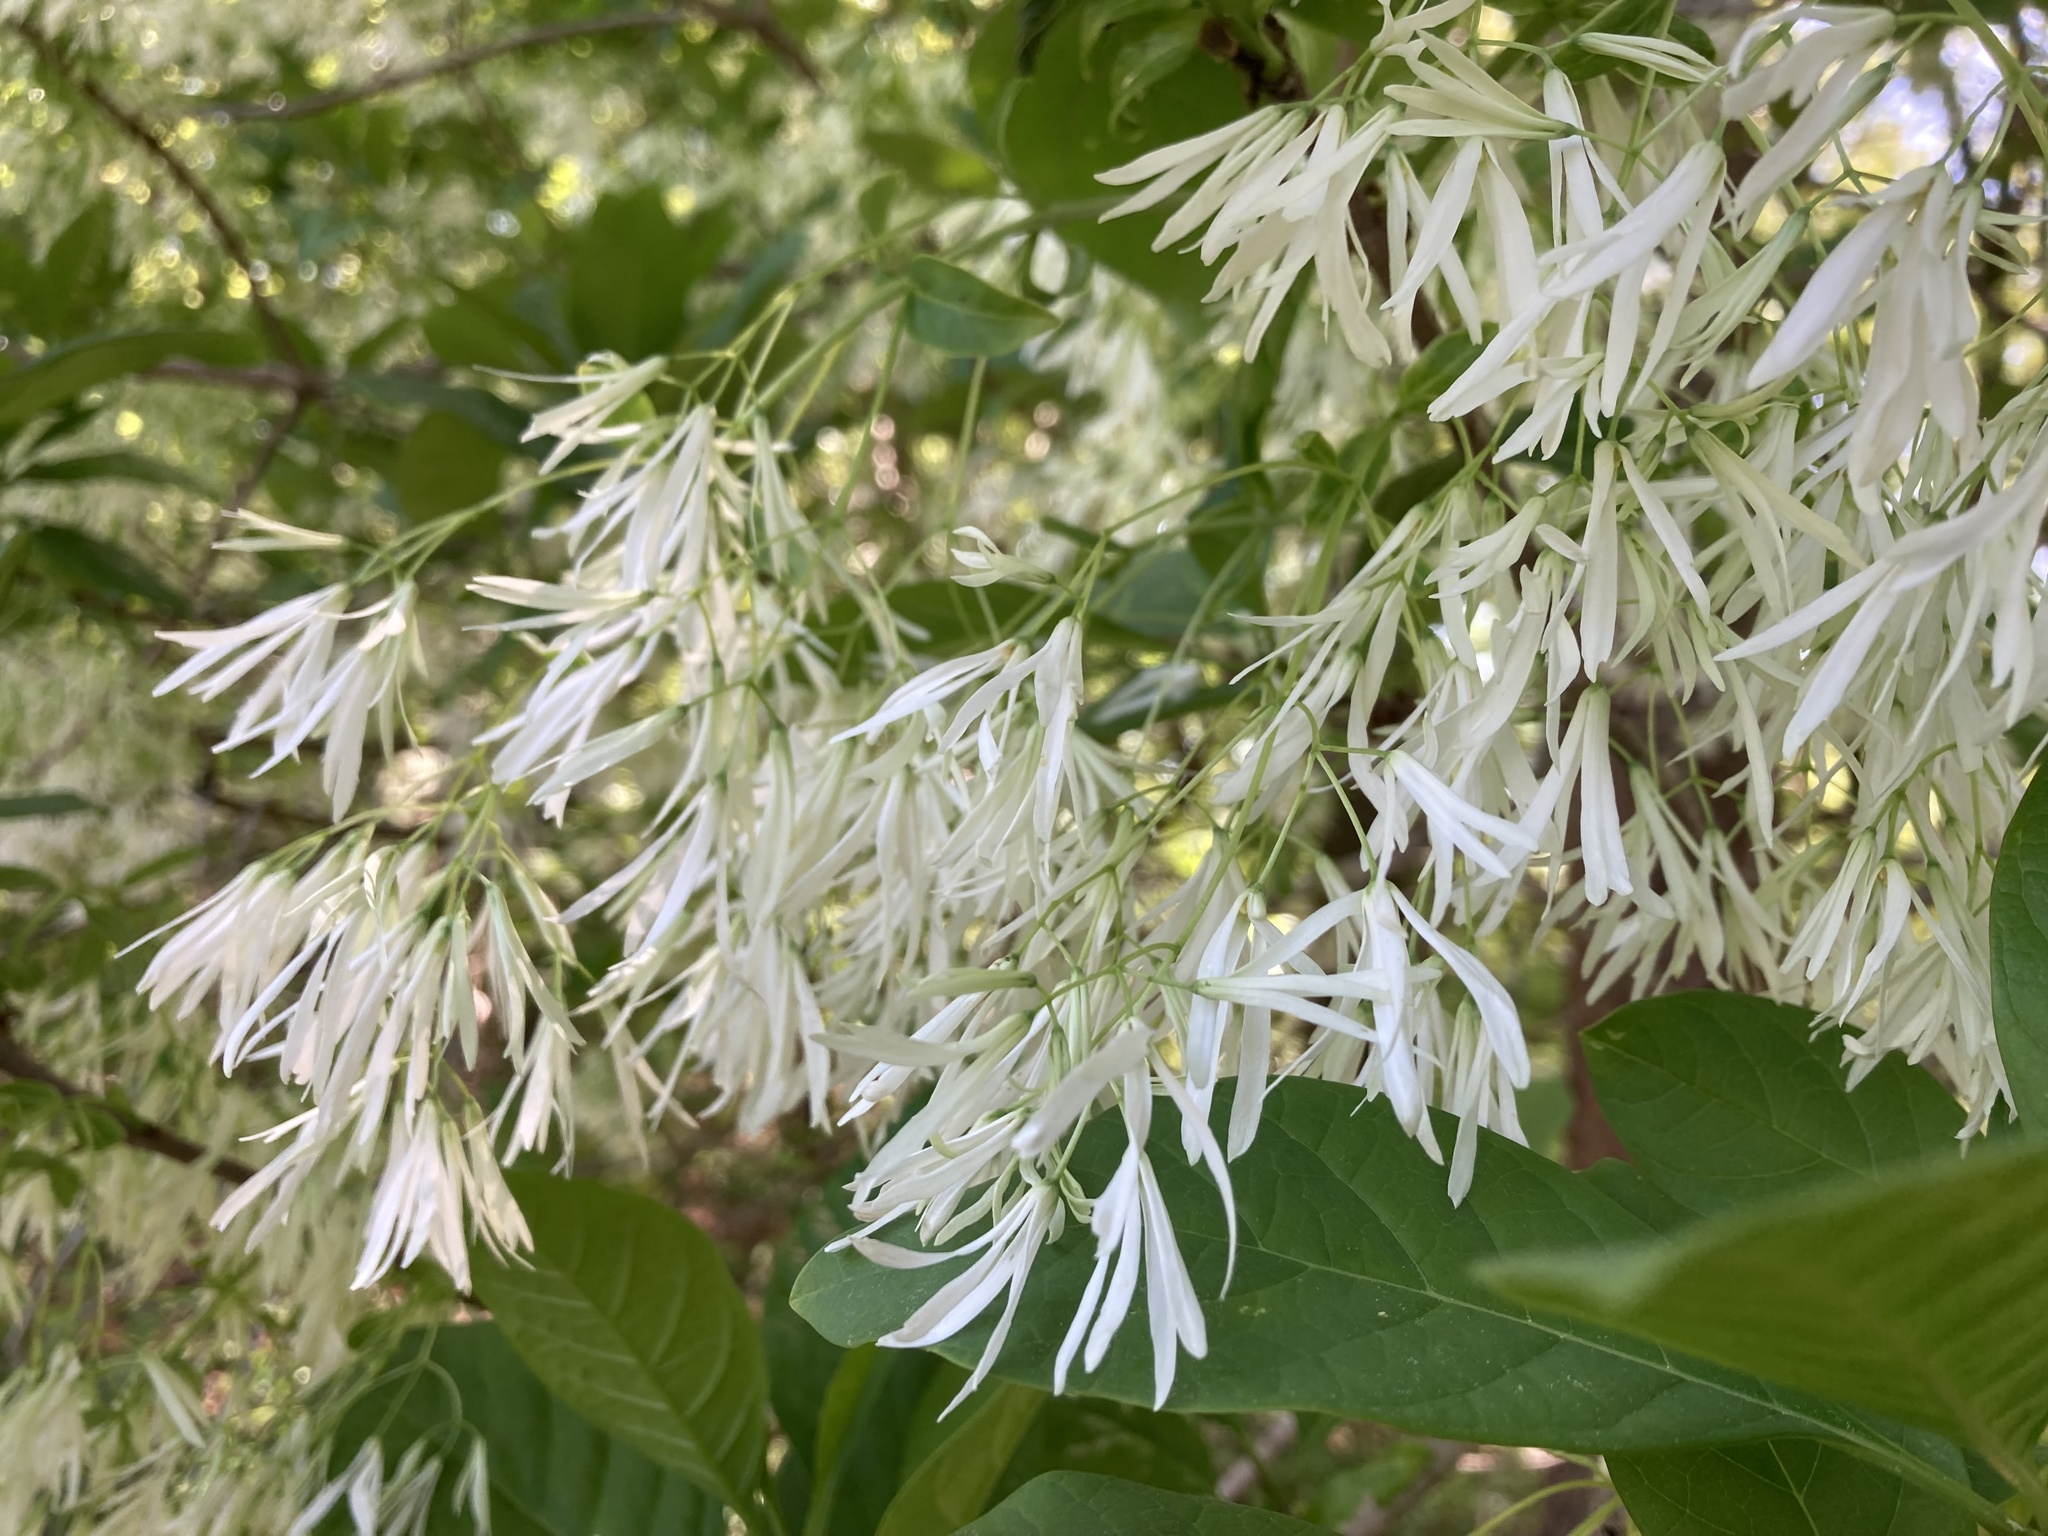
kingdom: Plantae
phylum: Tracheophyta
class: Magnoliopsida
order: Lamiales
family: Oleaceae
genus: Chionanthus
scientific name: Chionanthus virginicus
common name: American fringetree
